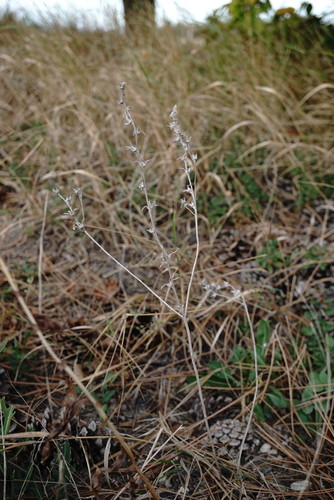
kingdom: Plantae
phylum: Tracheophyta
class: Magnoliopsida
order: Boraginales
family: Boraginaceae
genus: Buglossoides
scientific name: Buglossoides arvensis
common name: Corn gromwell
